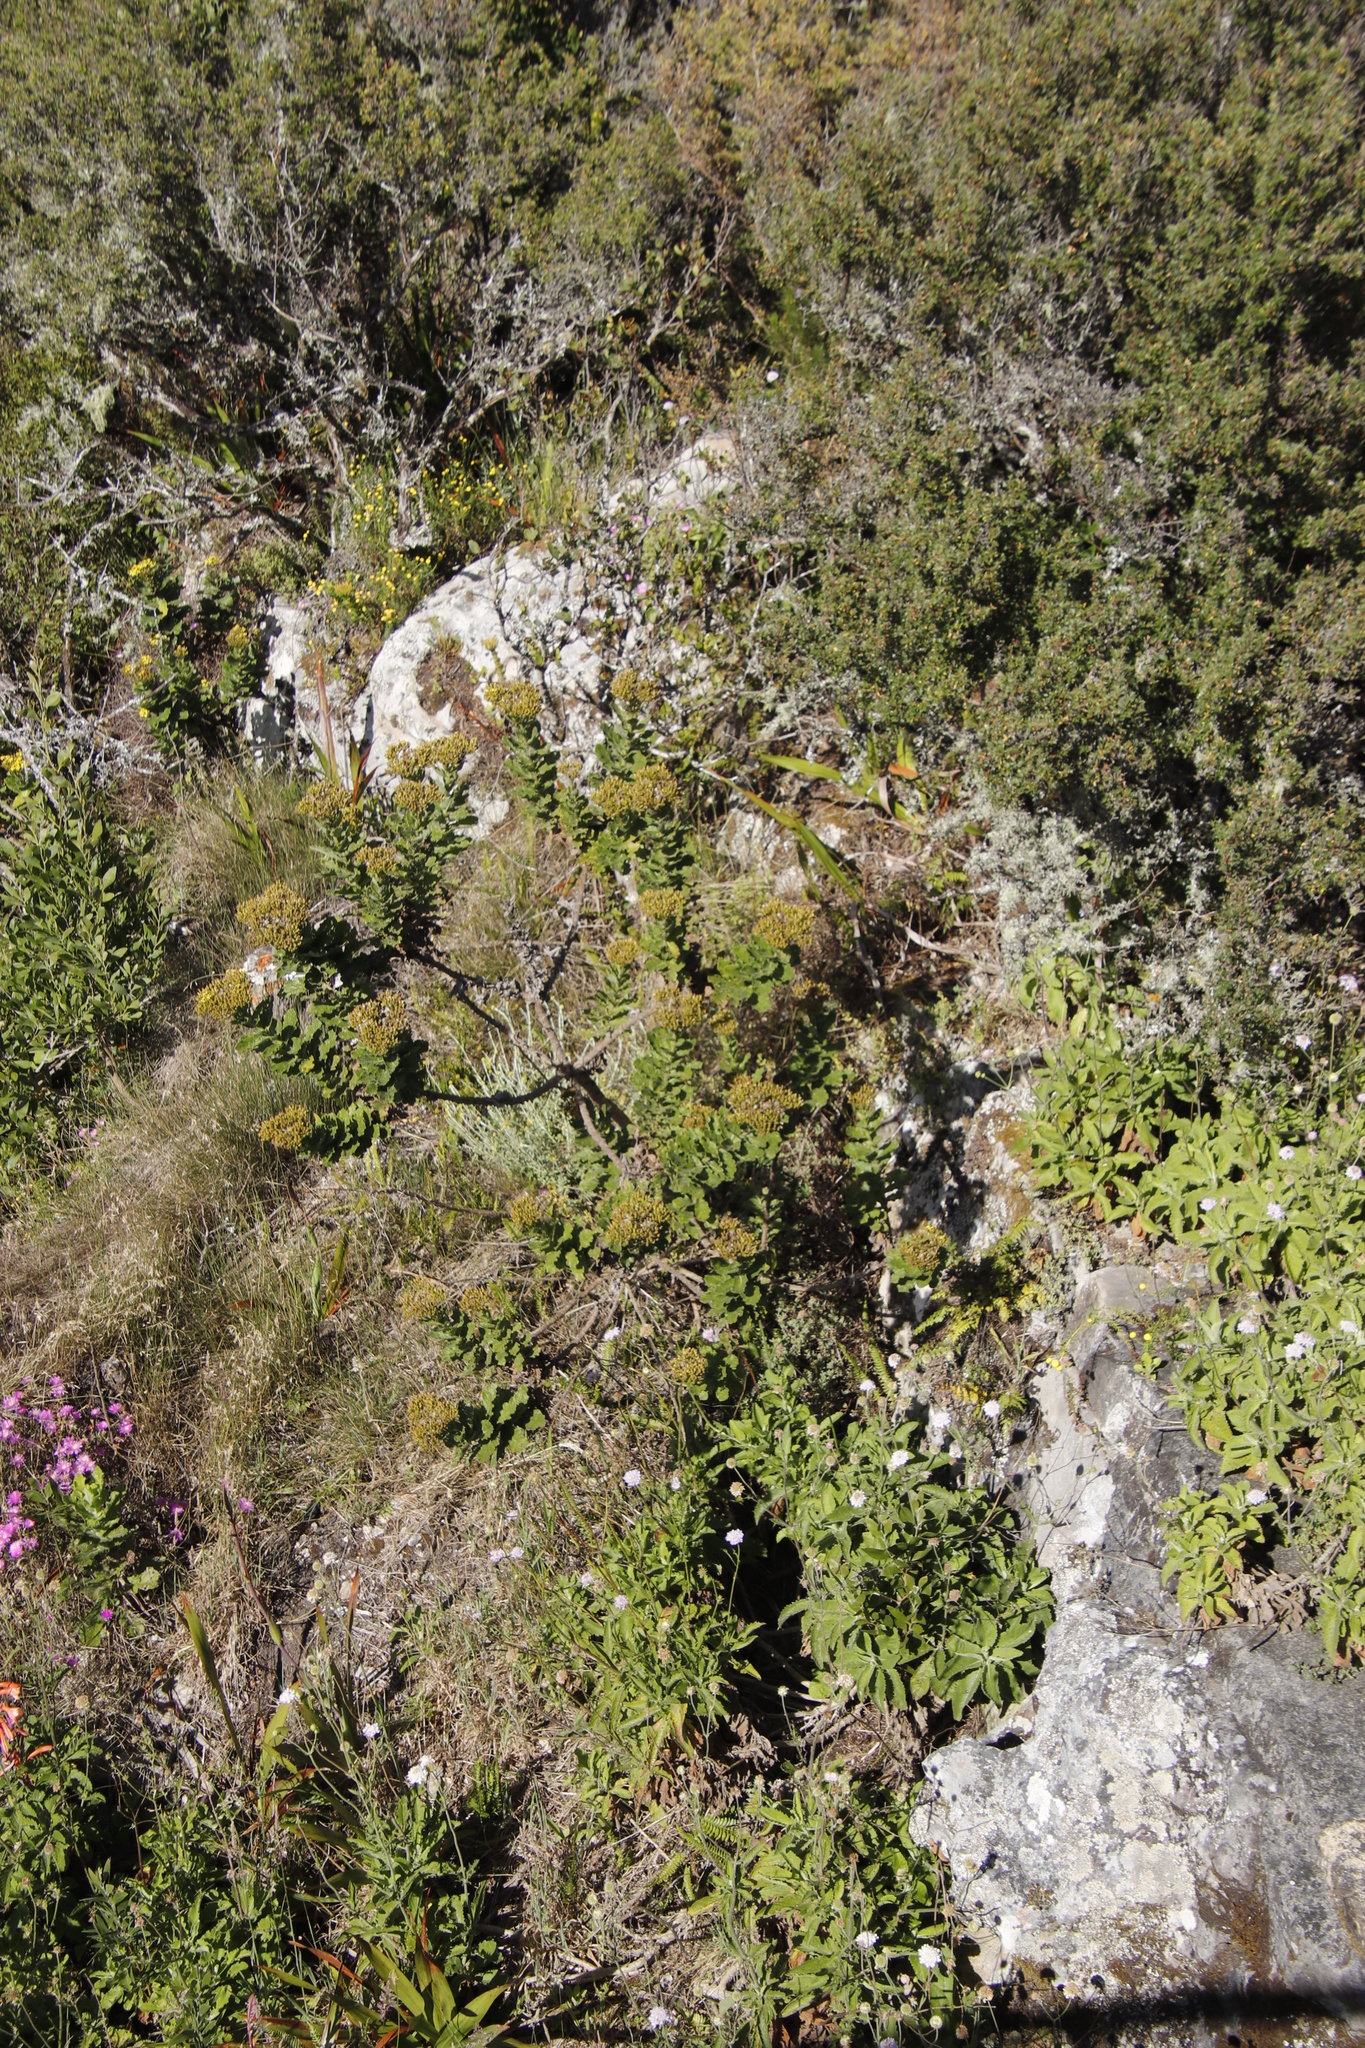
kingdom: Plantae
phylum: Tracheophyta
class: Magnoliopsida
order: Asterales
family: Asteraceae
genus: Senecio
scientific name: Senecio rigidus
